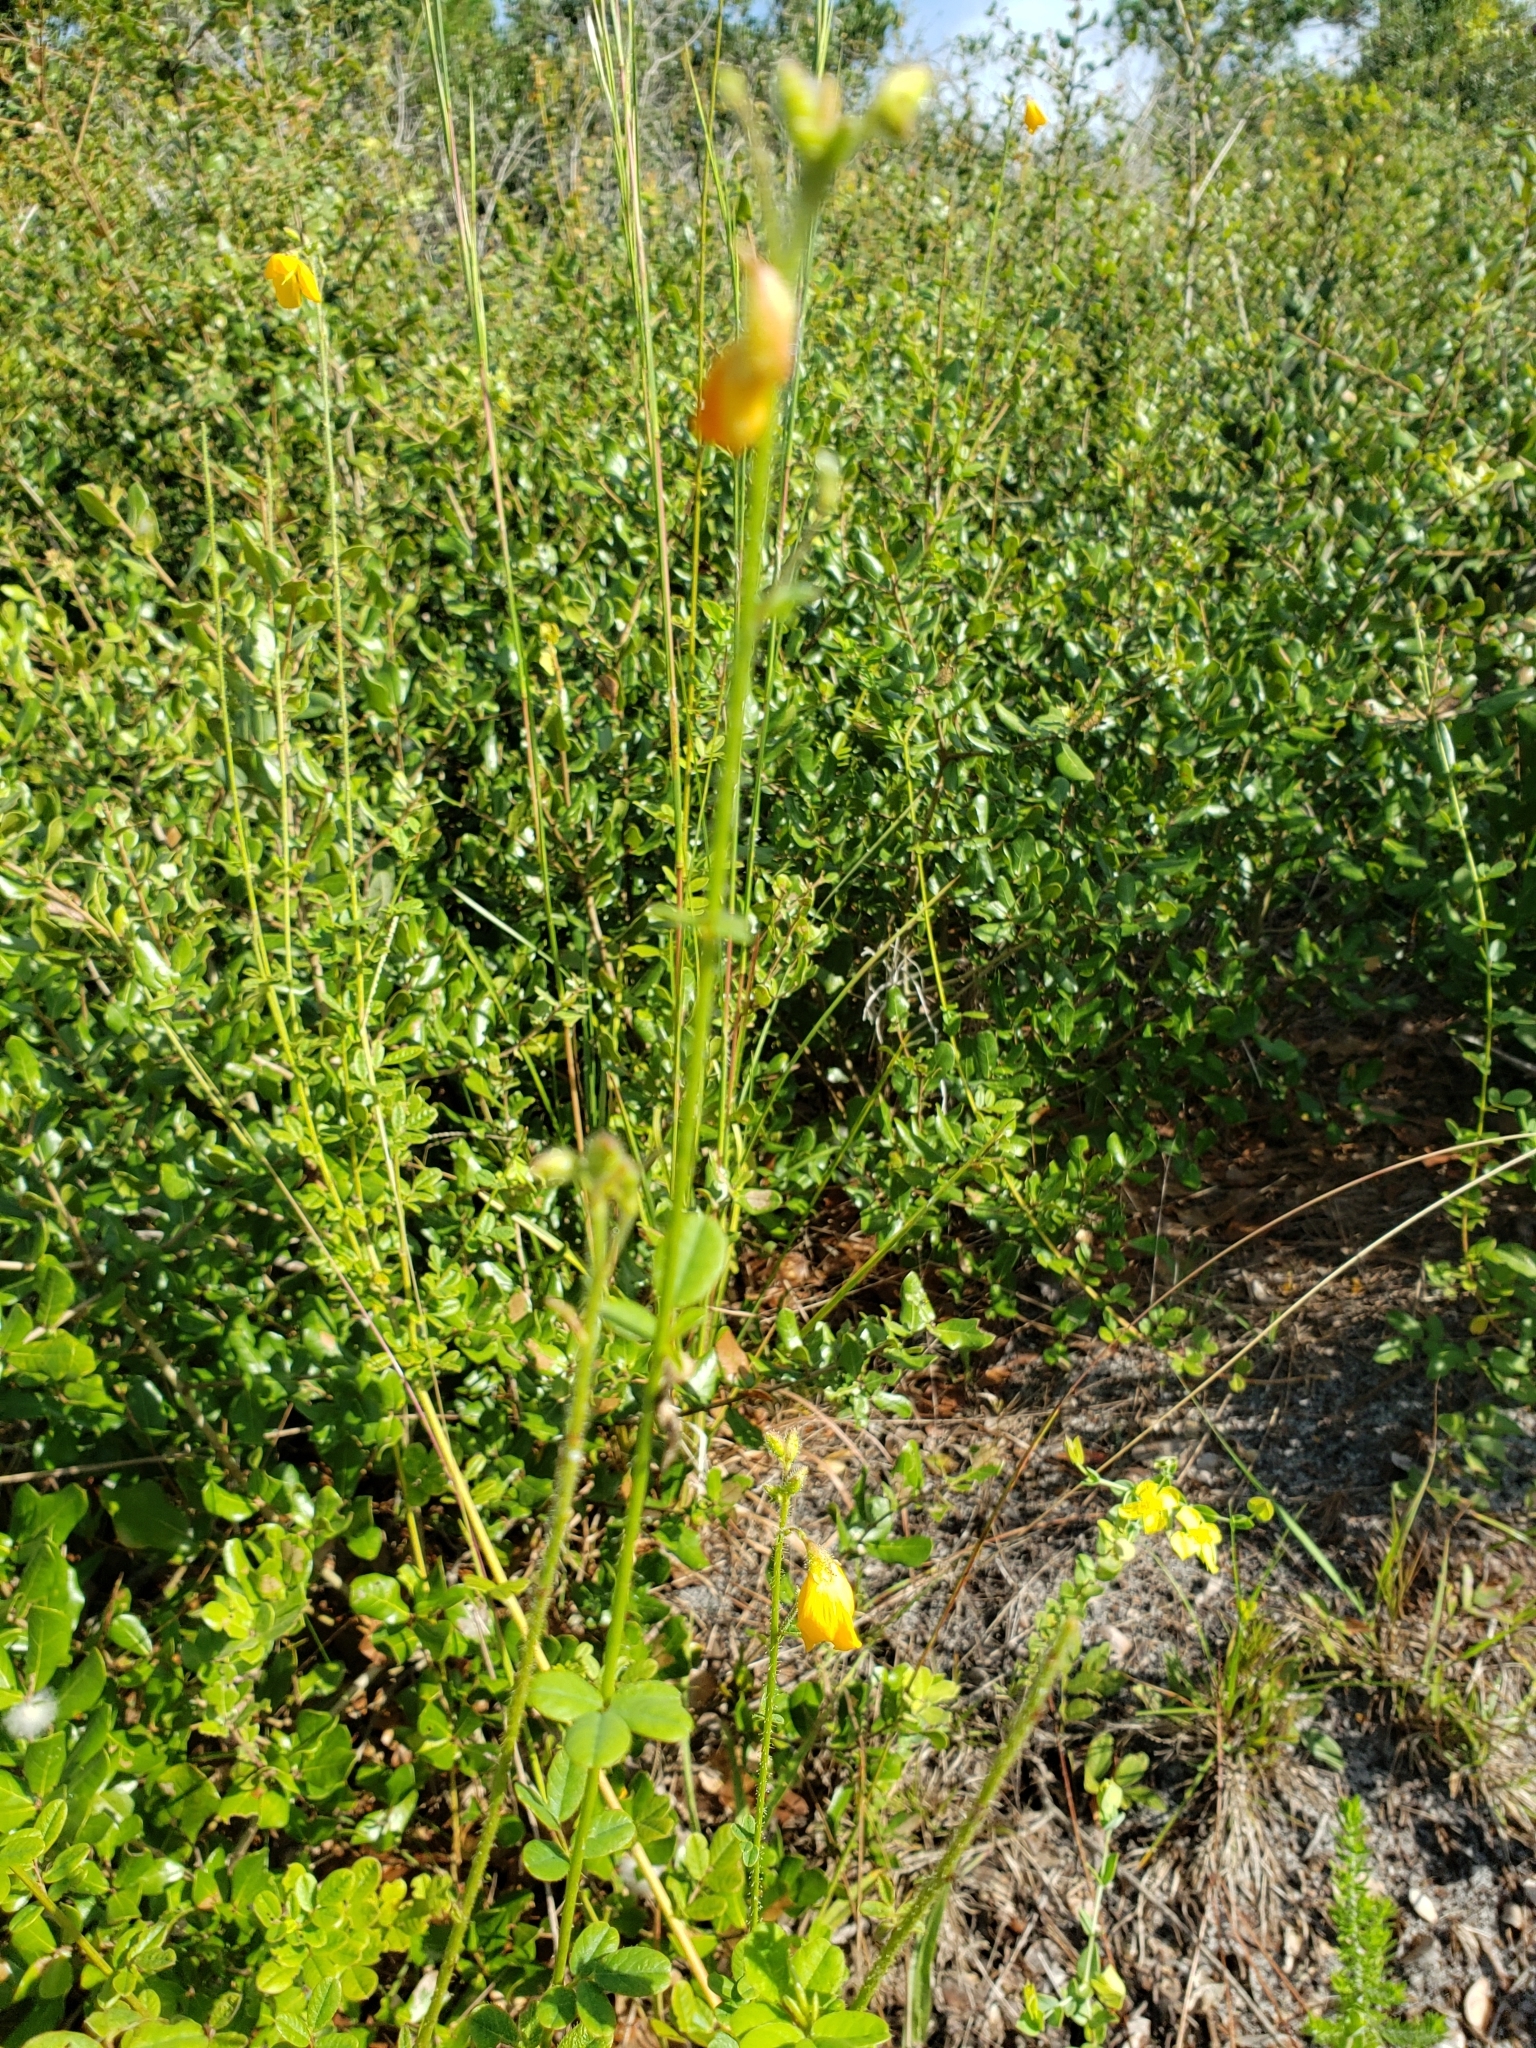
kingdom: Plantae
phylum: Tracheophyta
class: Magnoliopsida
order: Fabales
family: Fabaceae
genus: Chapmannia
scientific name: Chapmannia floridana
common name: Alicia
